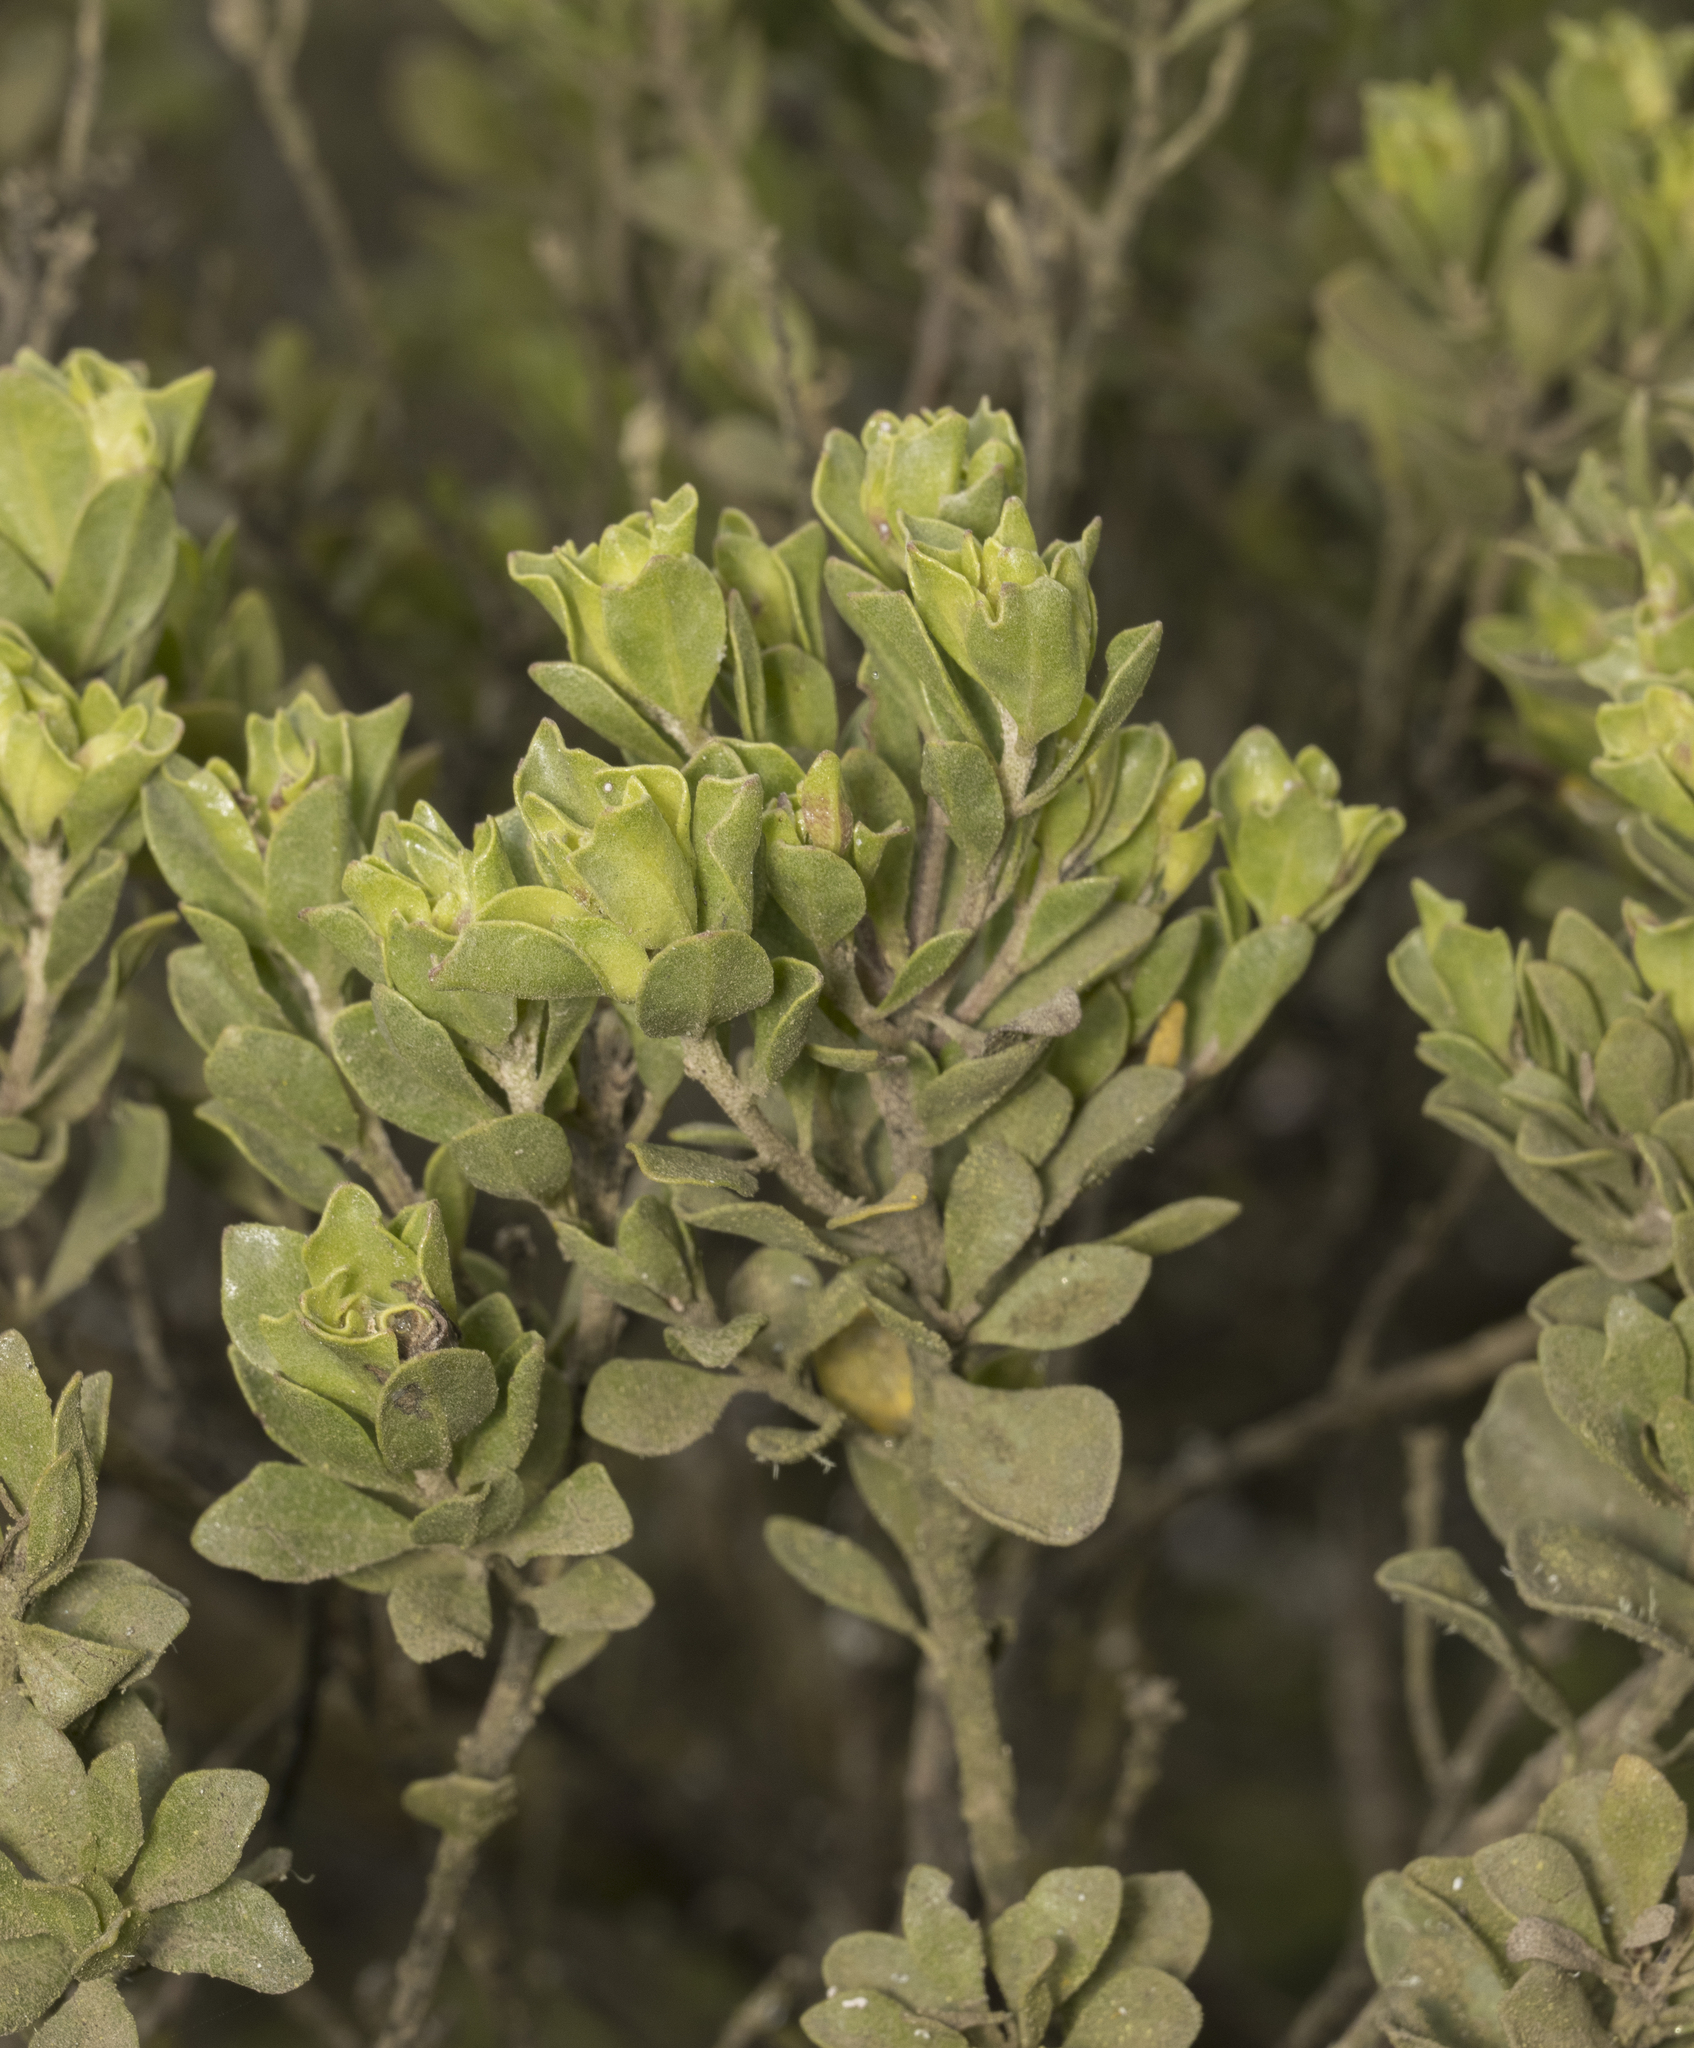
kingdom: Plantae
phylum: Tracheophyta
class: Magnoliopsida
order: Asterales
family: Asteraceae
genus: Baccharis
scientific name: Baccharis vernalis
